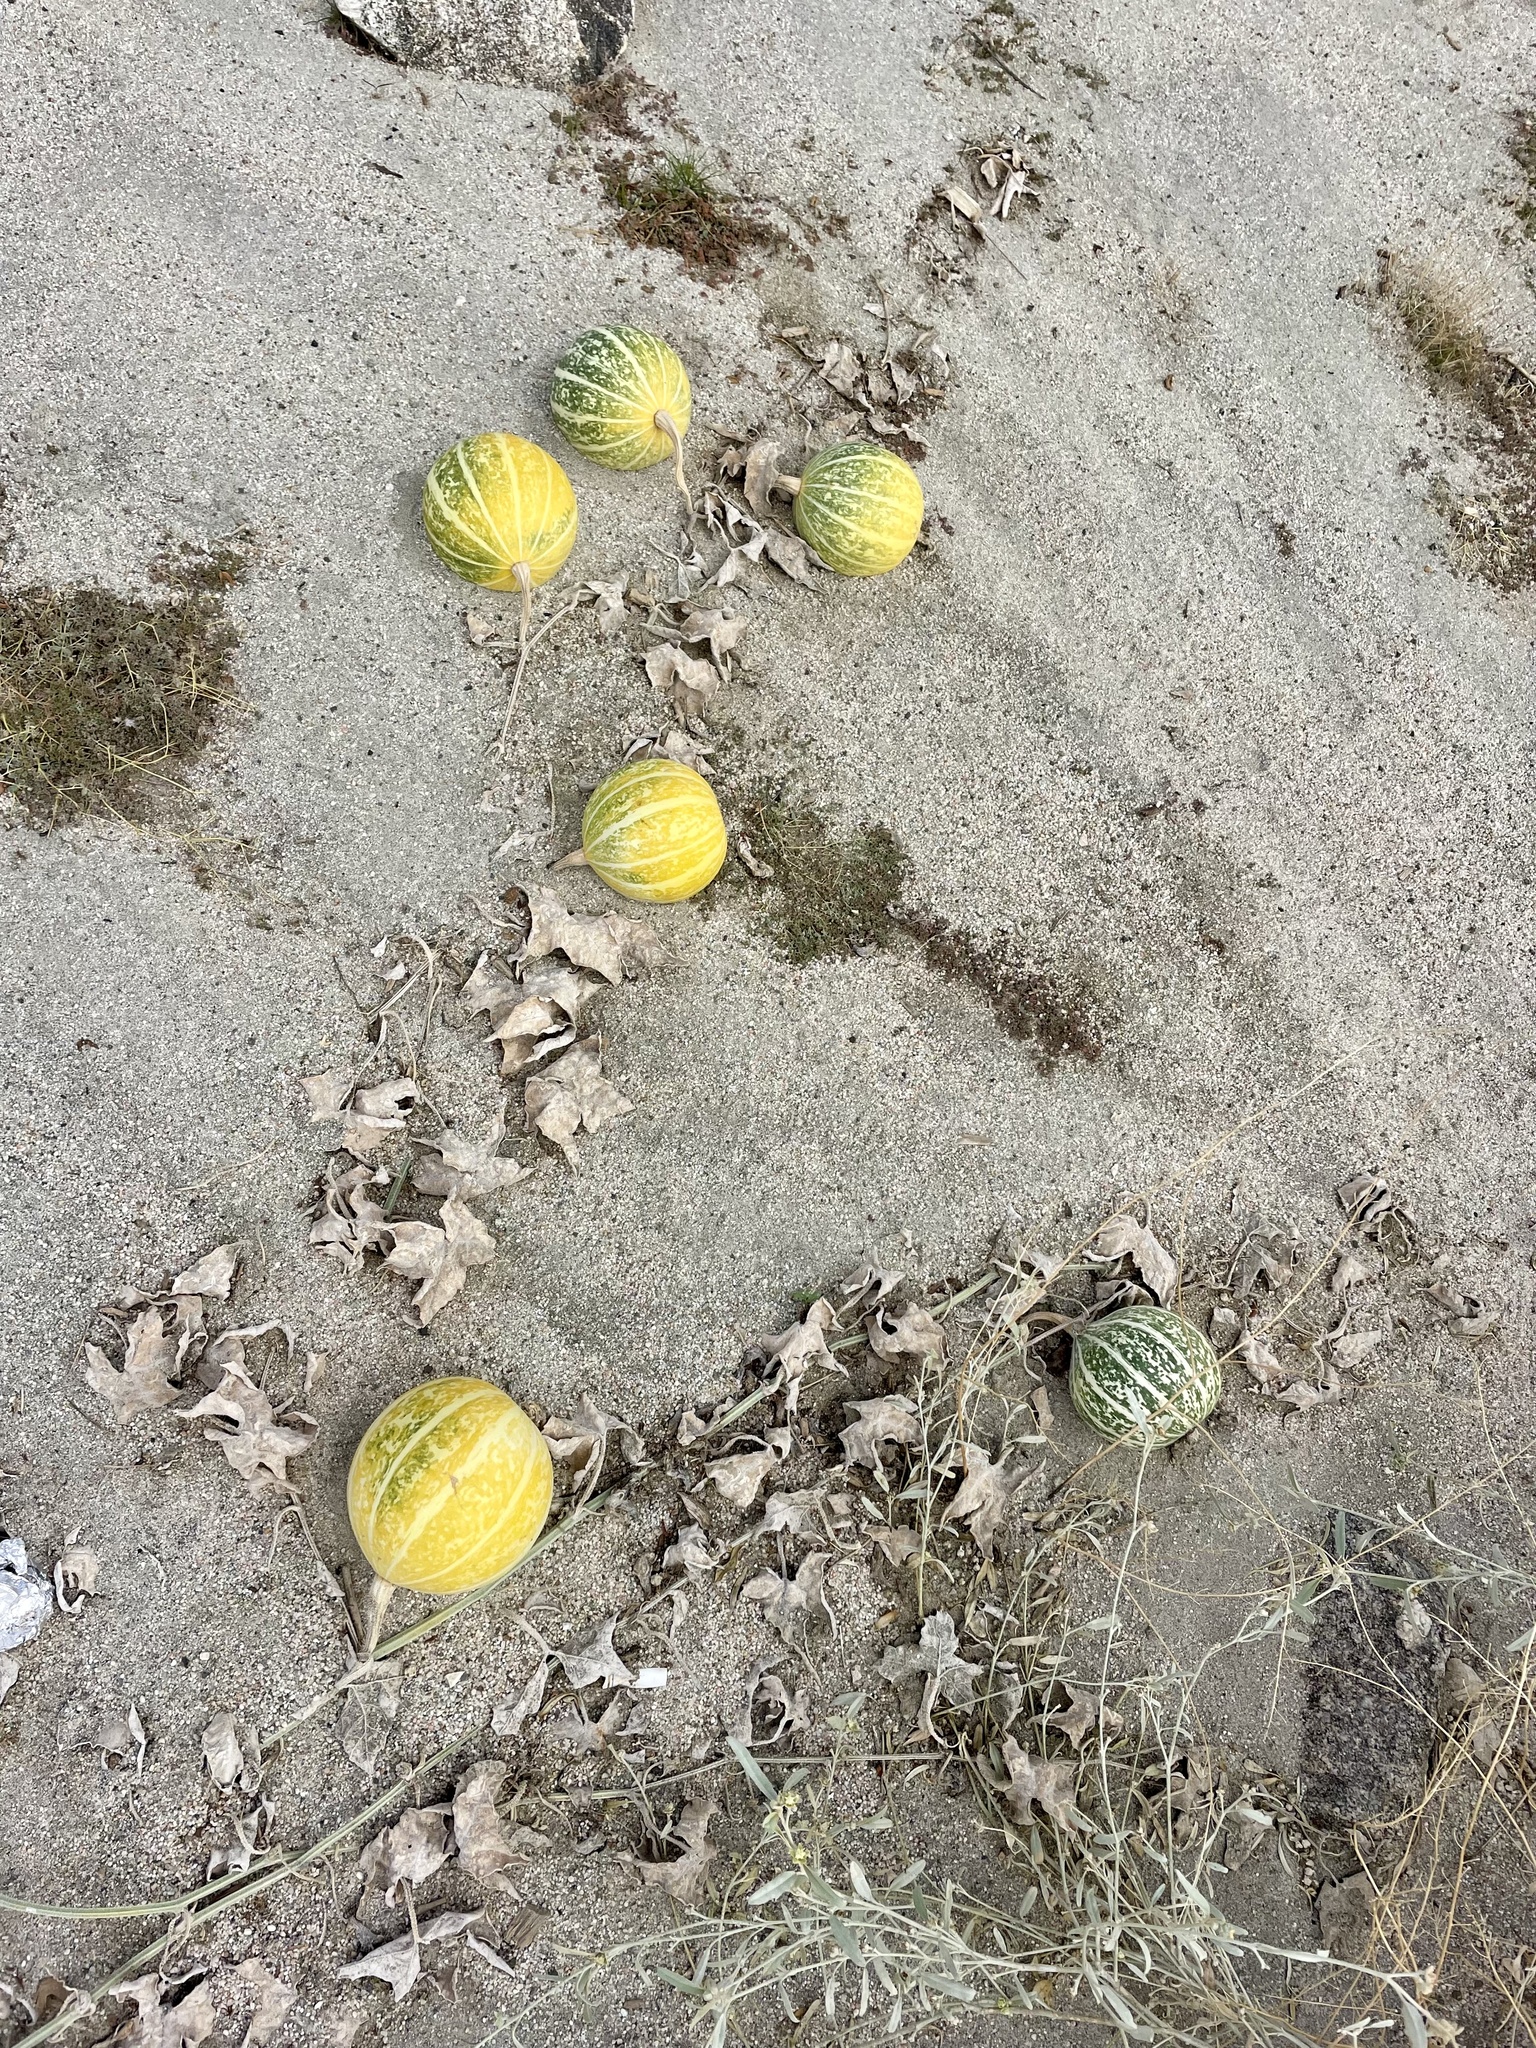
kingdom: Plantae
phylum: Tracheophyta
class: Magnoliopsida
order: Cucurbitales
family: Cucurbitaceae
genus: Cucurbita
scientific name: Cucurbita palmata
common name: Coyote-melon
